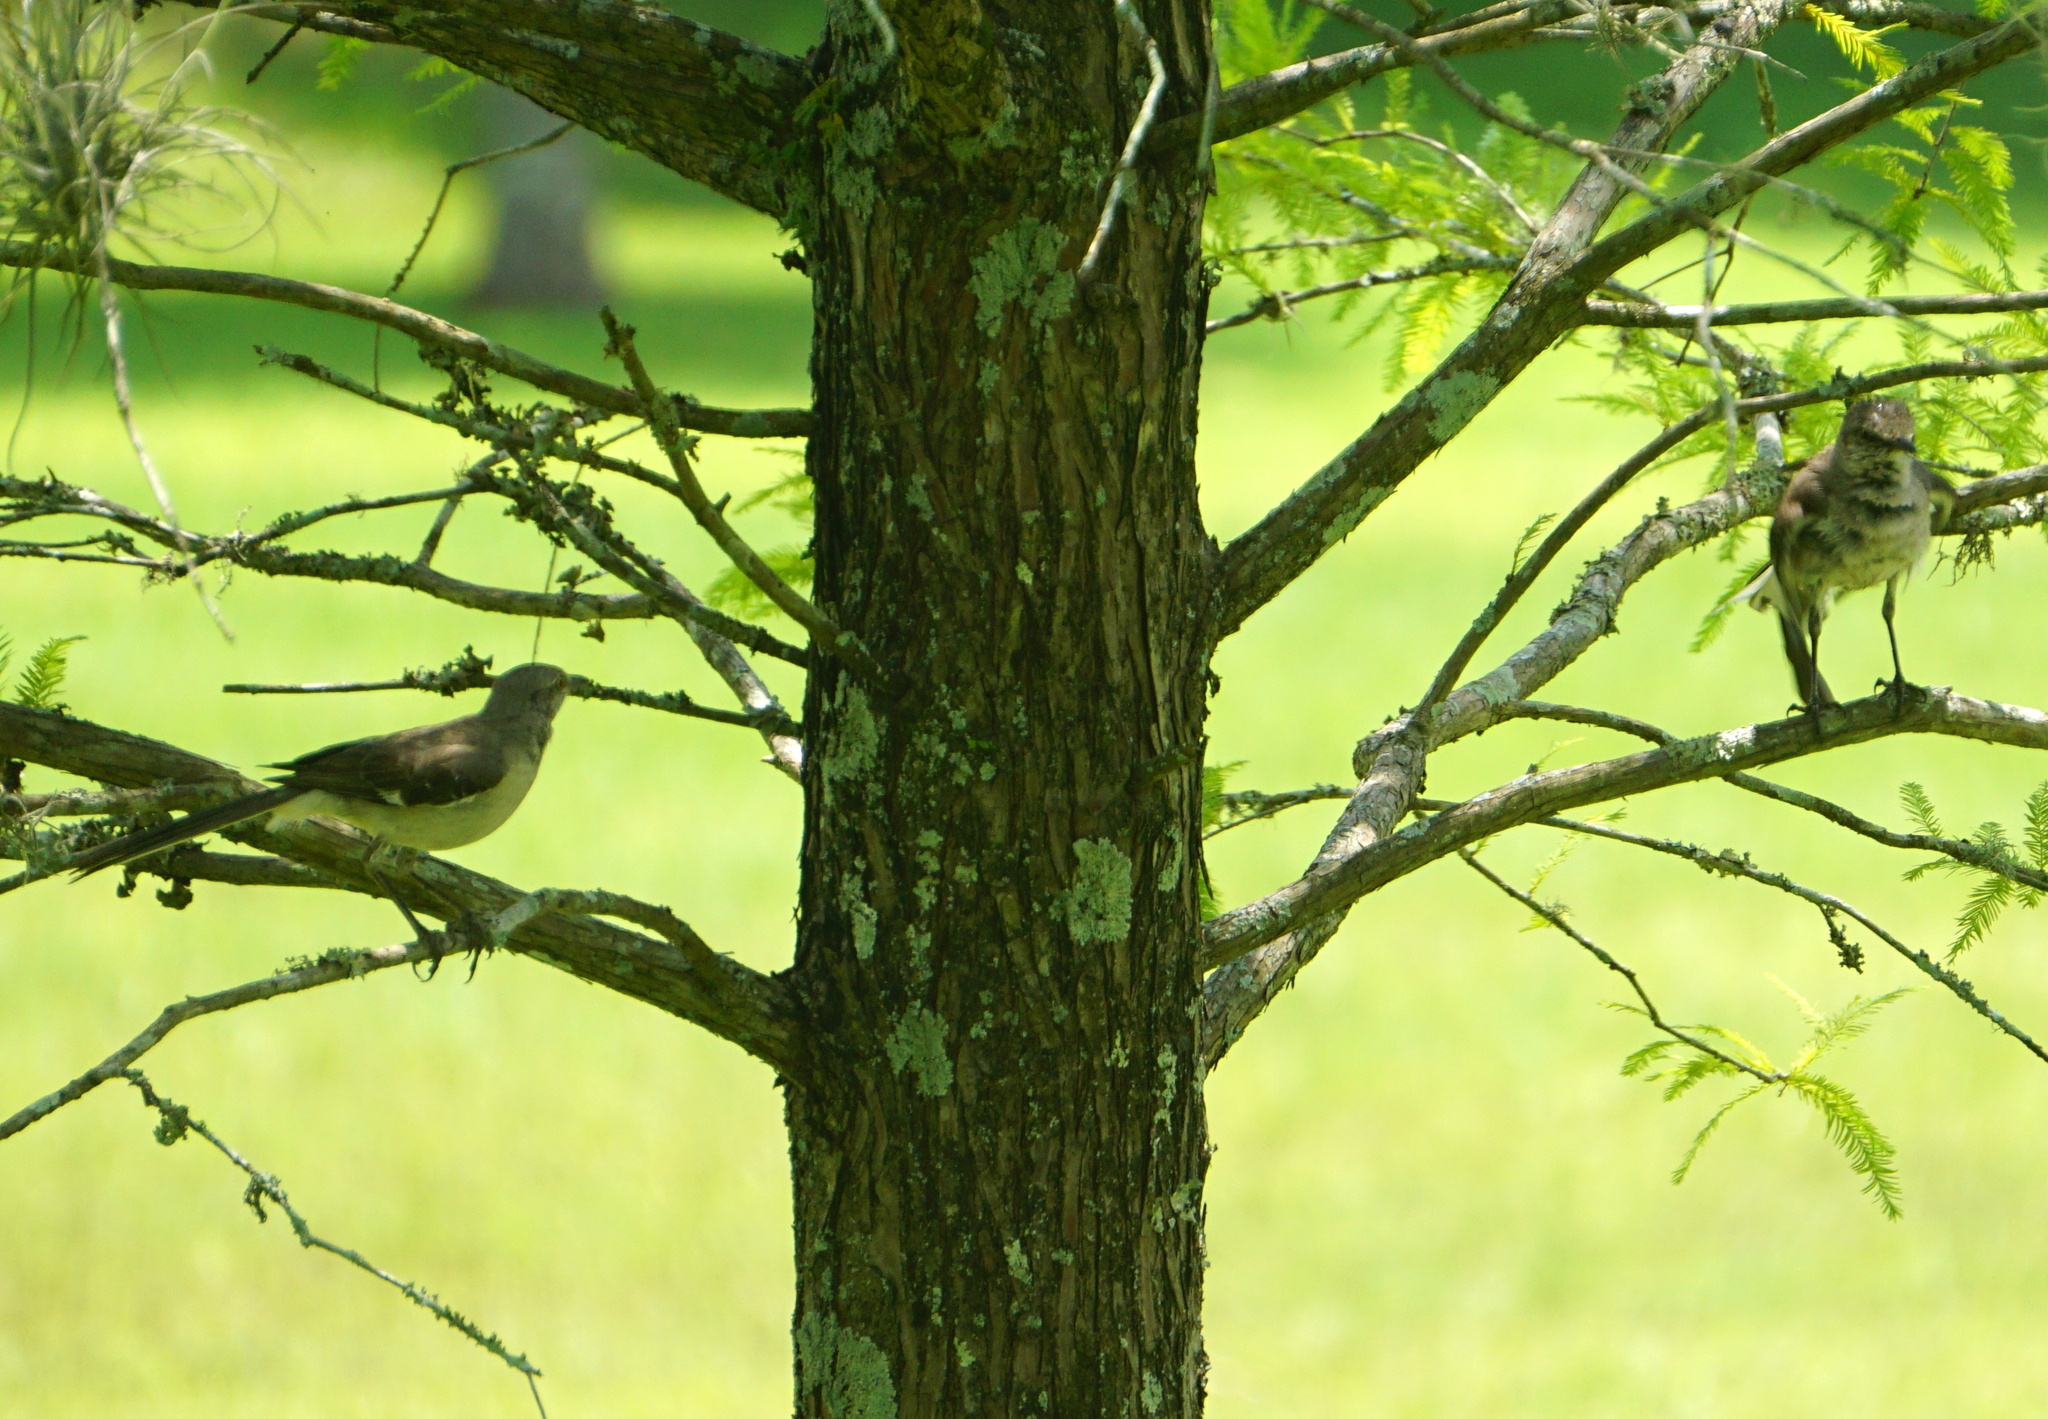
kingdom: Animalia
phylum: Chordata
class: Aves
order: Passeriformes
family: Mimidae
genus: Mimus
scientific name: Mimus polyglottos
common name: Northern mockingbird
